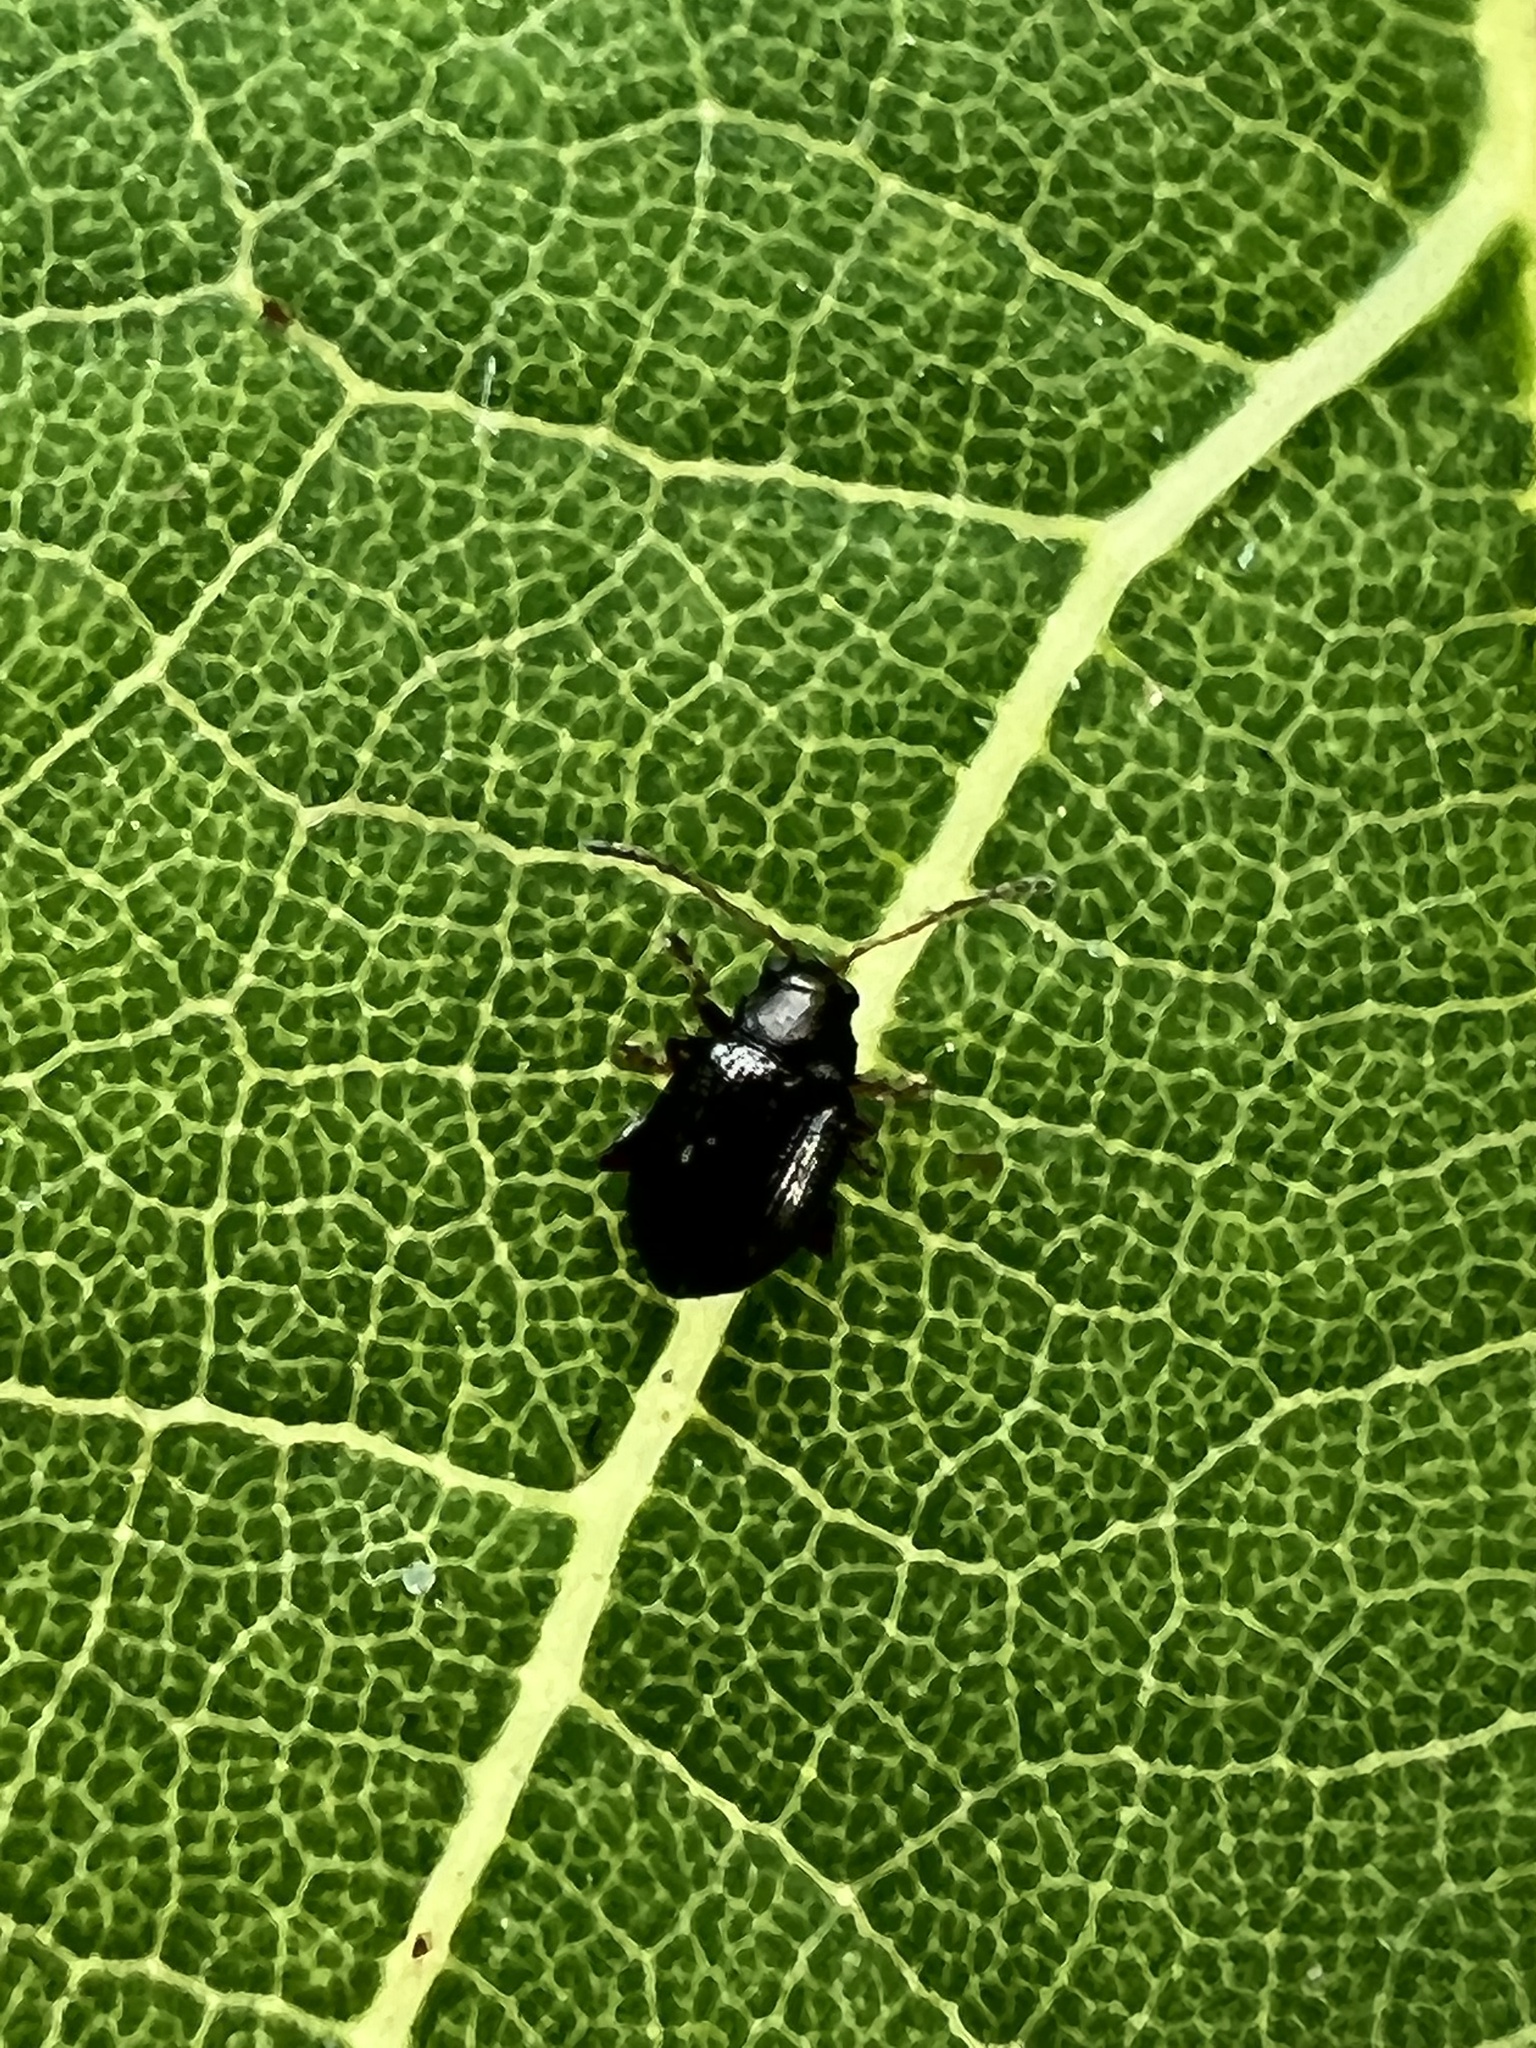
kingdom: Animalia
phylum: Arthropoda
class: Insecta
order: Coleoptera
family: Chrysomelidae
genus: Chaetocnema
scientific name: Chaetocnema quadricollis
